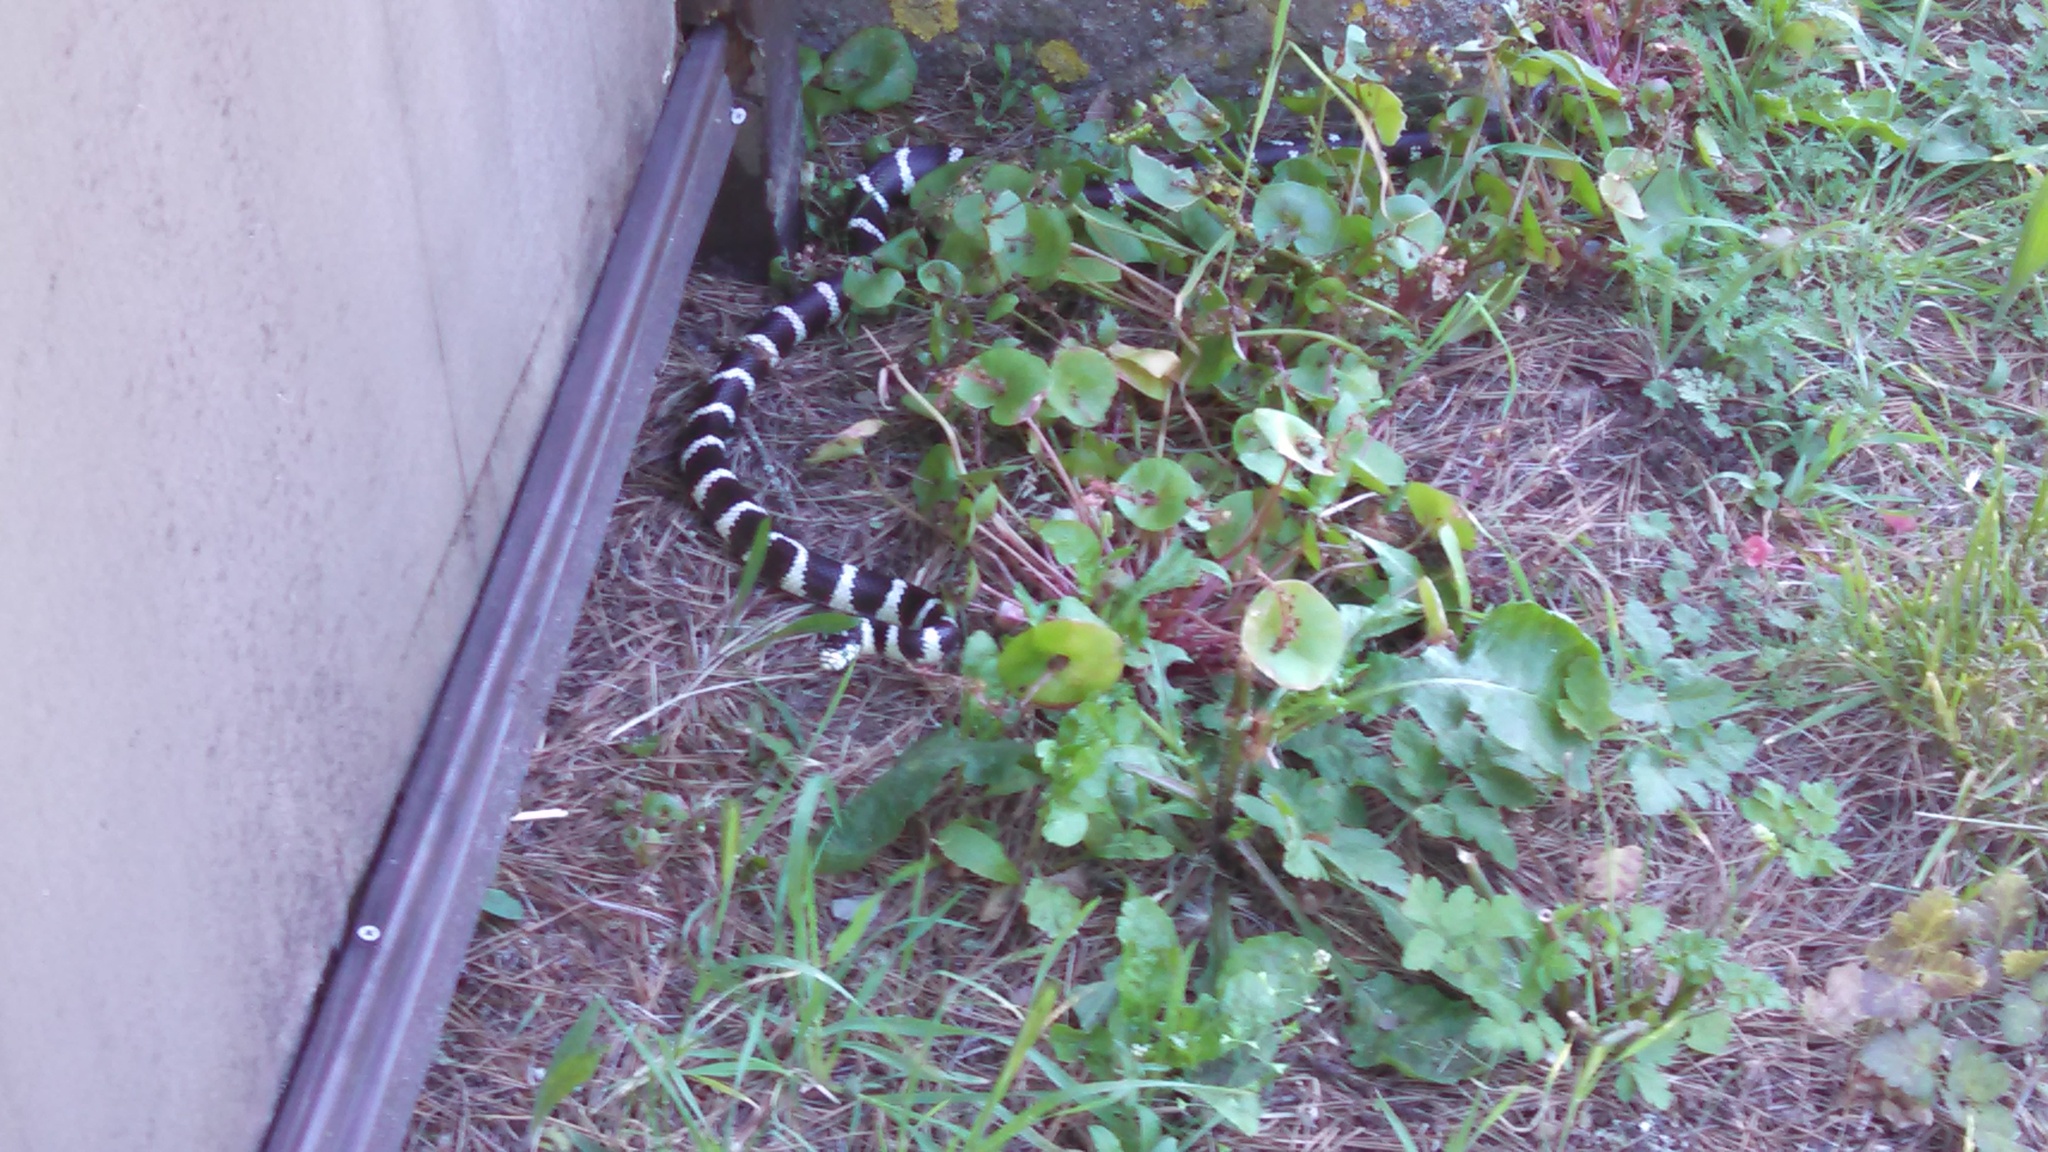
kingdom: Animalia
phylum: Chordata
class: Squamata
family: Colubridae
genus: Lampropeltis
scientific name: Lampropeltis californiae
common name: California kingsnake
